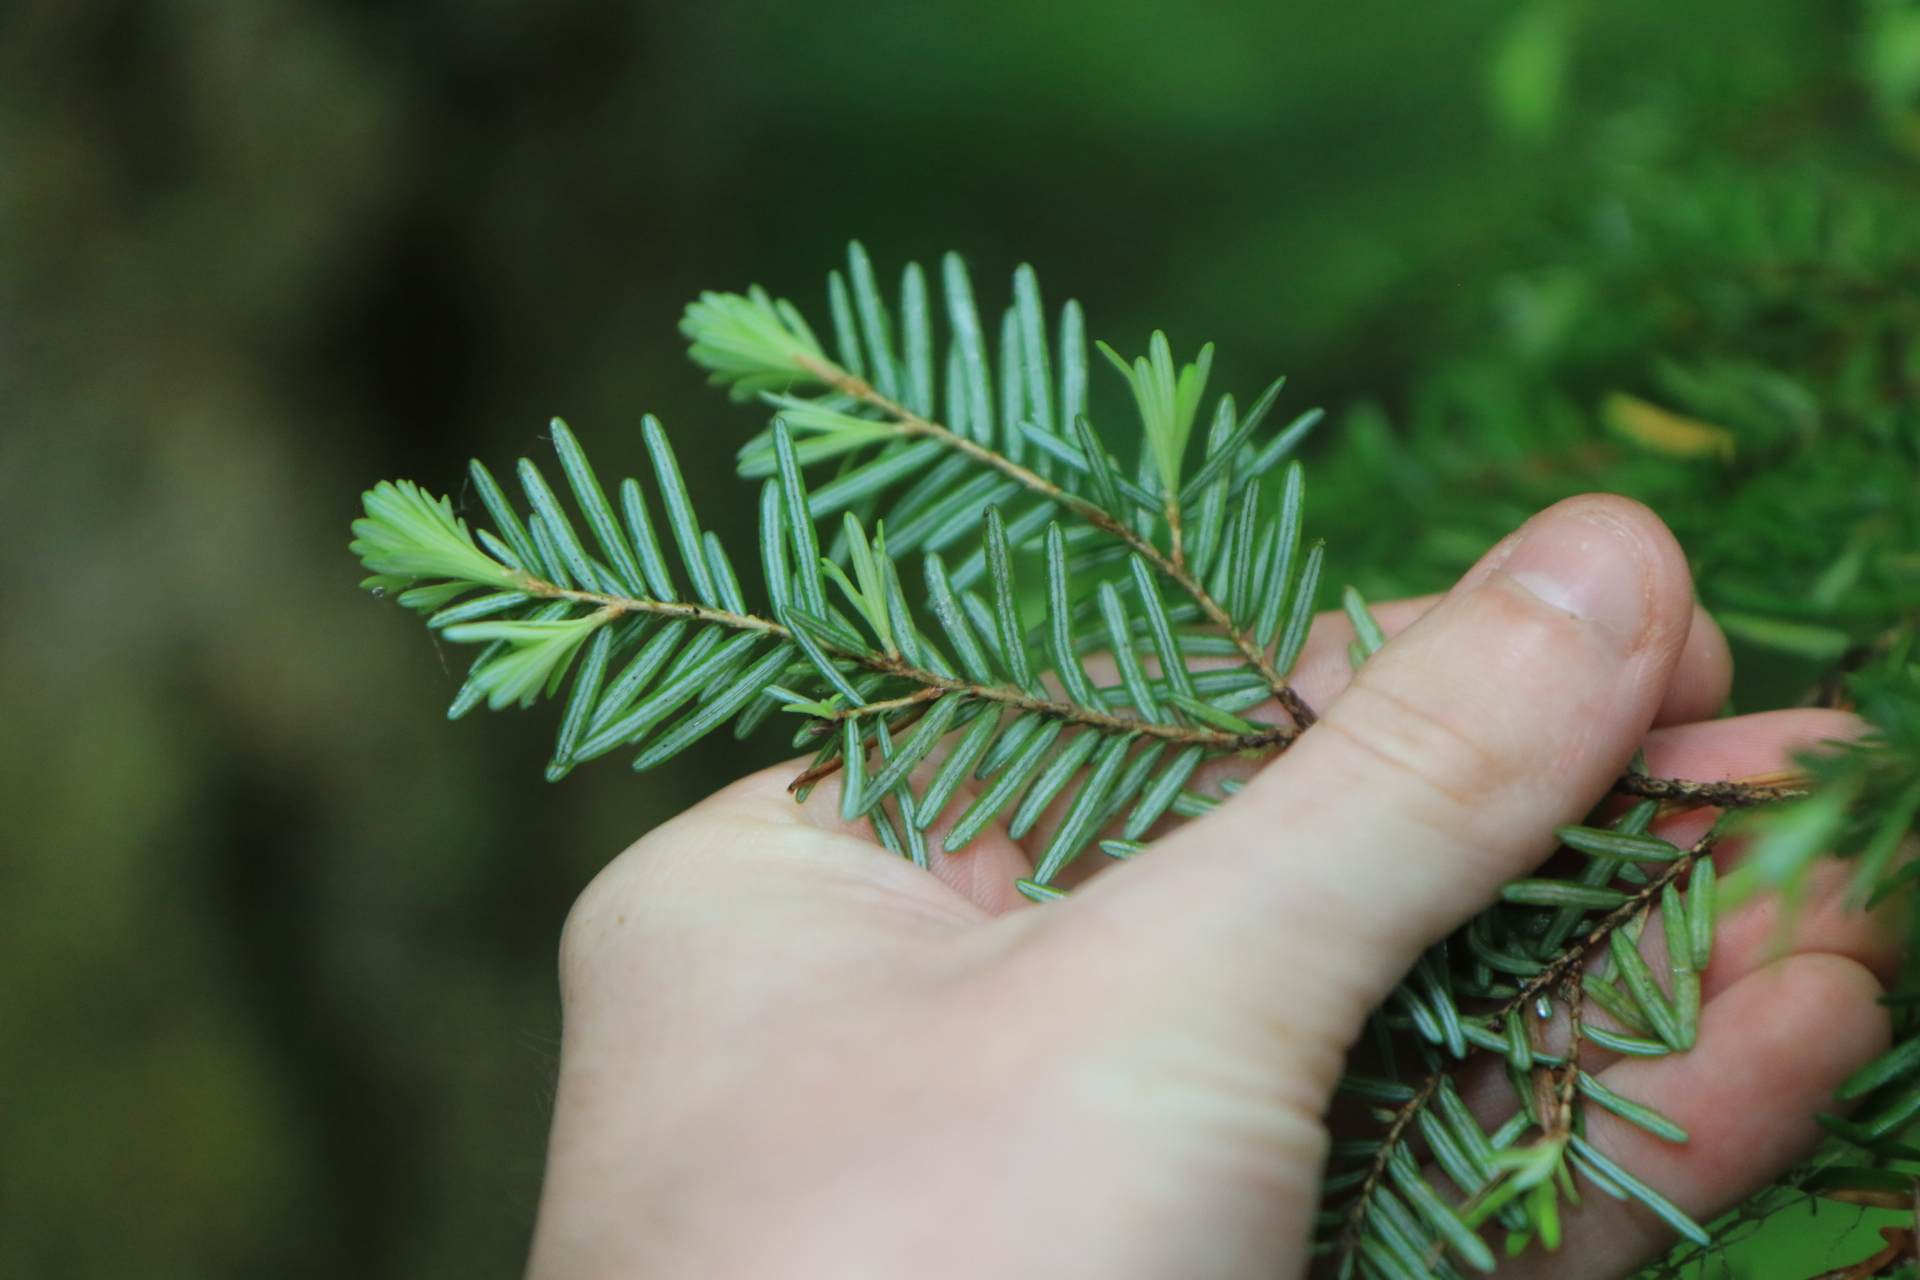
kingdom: Plantae
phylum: Tracheophyta
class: Pinopsida
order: Pinales
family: Pinaceae
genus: Tsuga
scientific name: Tsuga heterophylla
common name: Western hemlock
